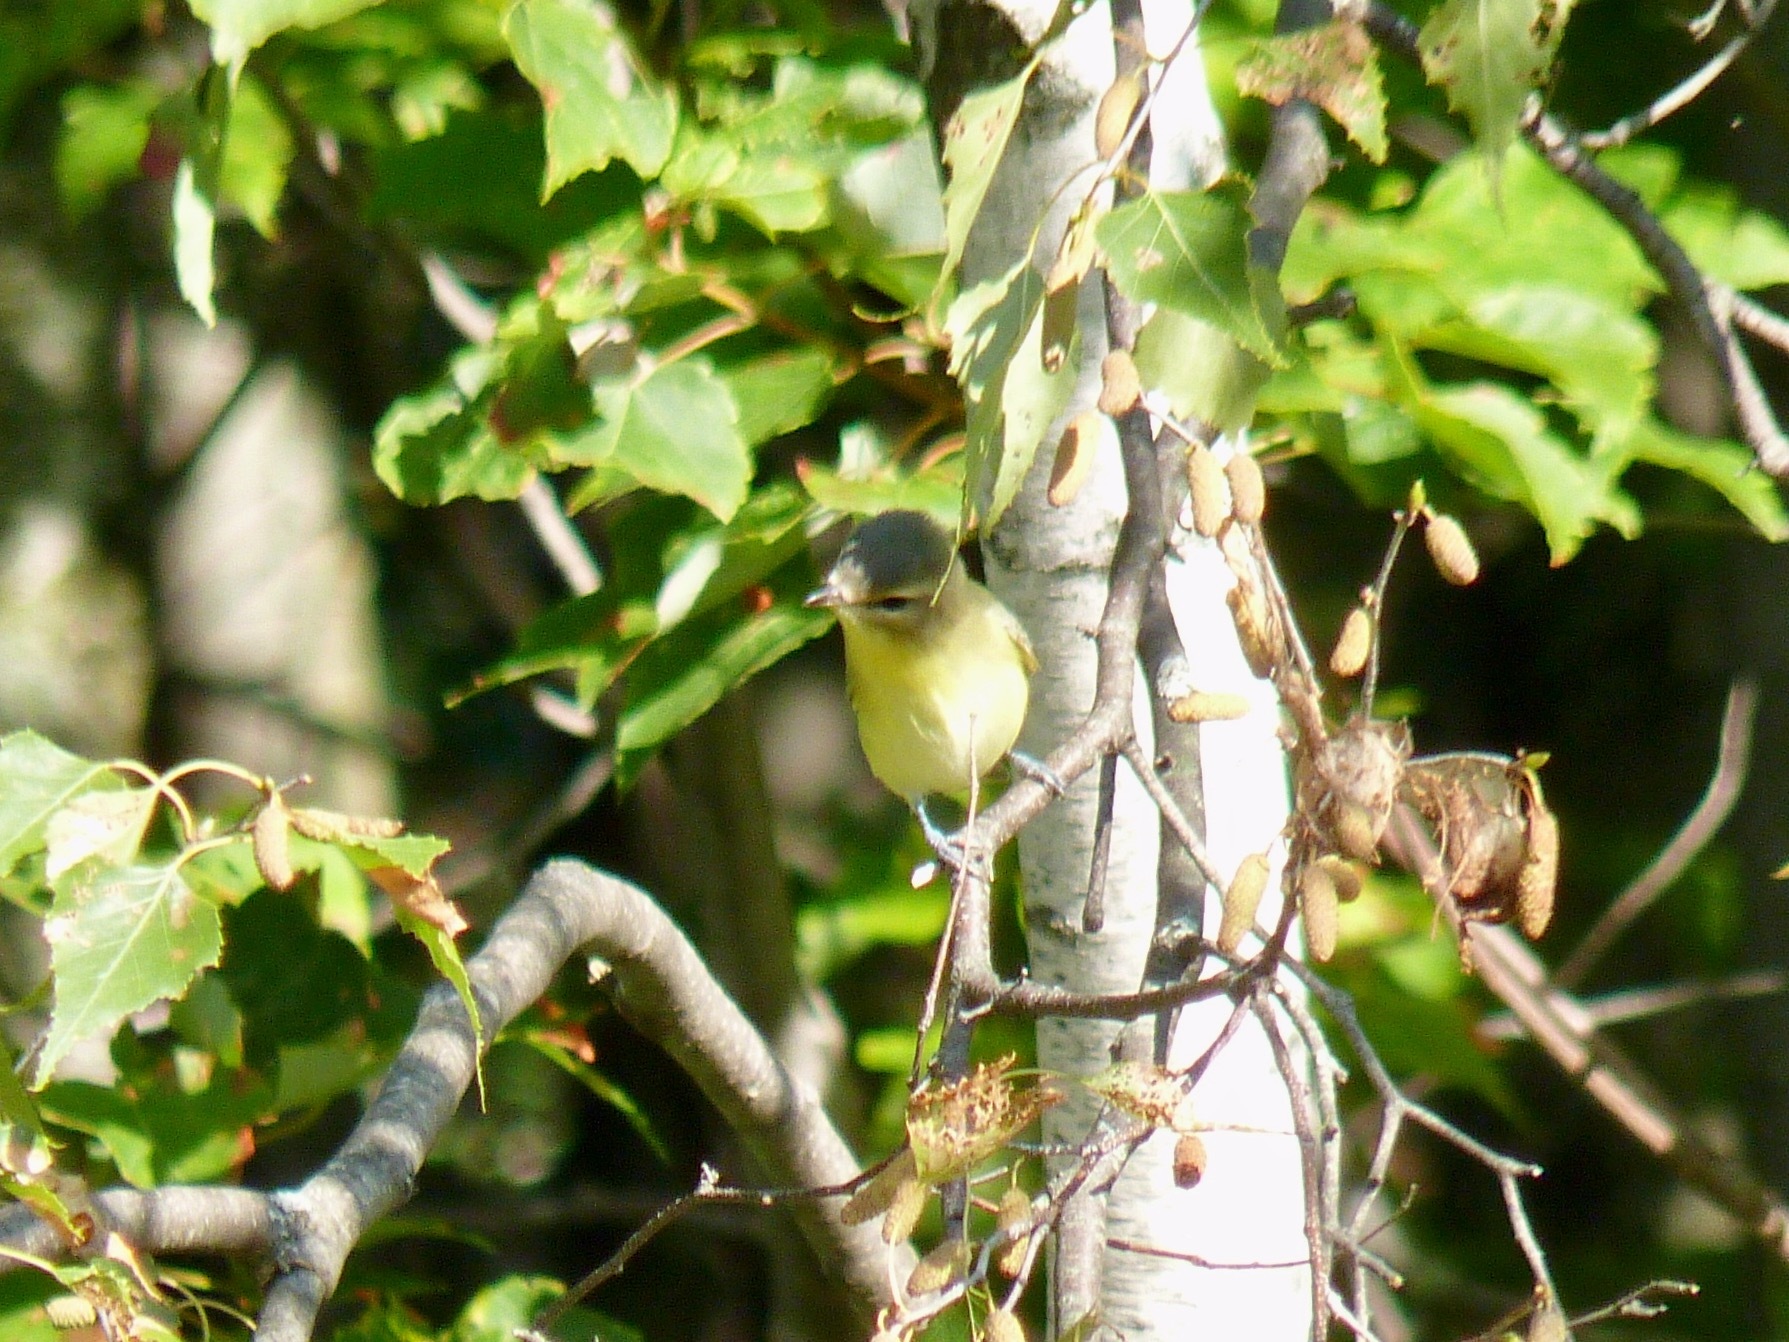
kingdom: Animalia
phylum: Chordata
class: Aves
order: Passeriformes
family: Vireonidae
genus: Vireo
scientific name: Vireo philadelphicus
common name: Philadelphia vireo
